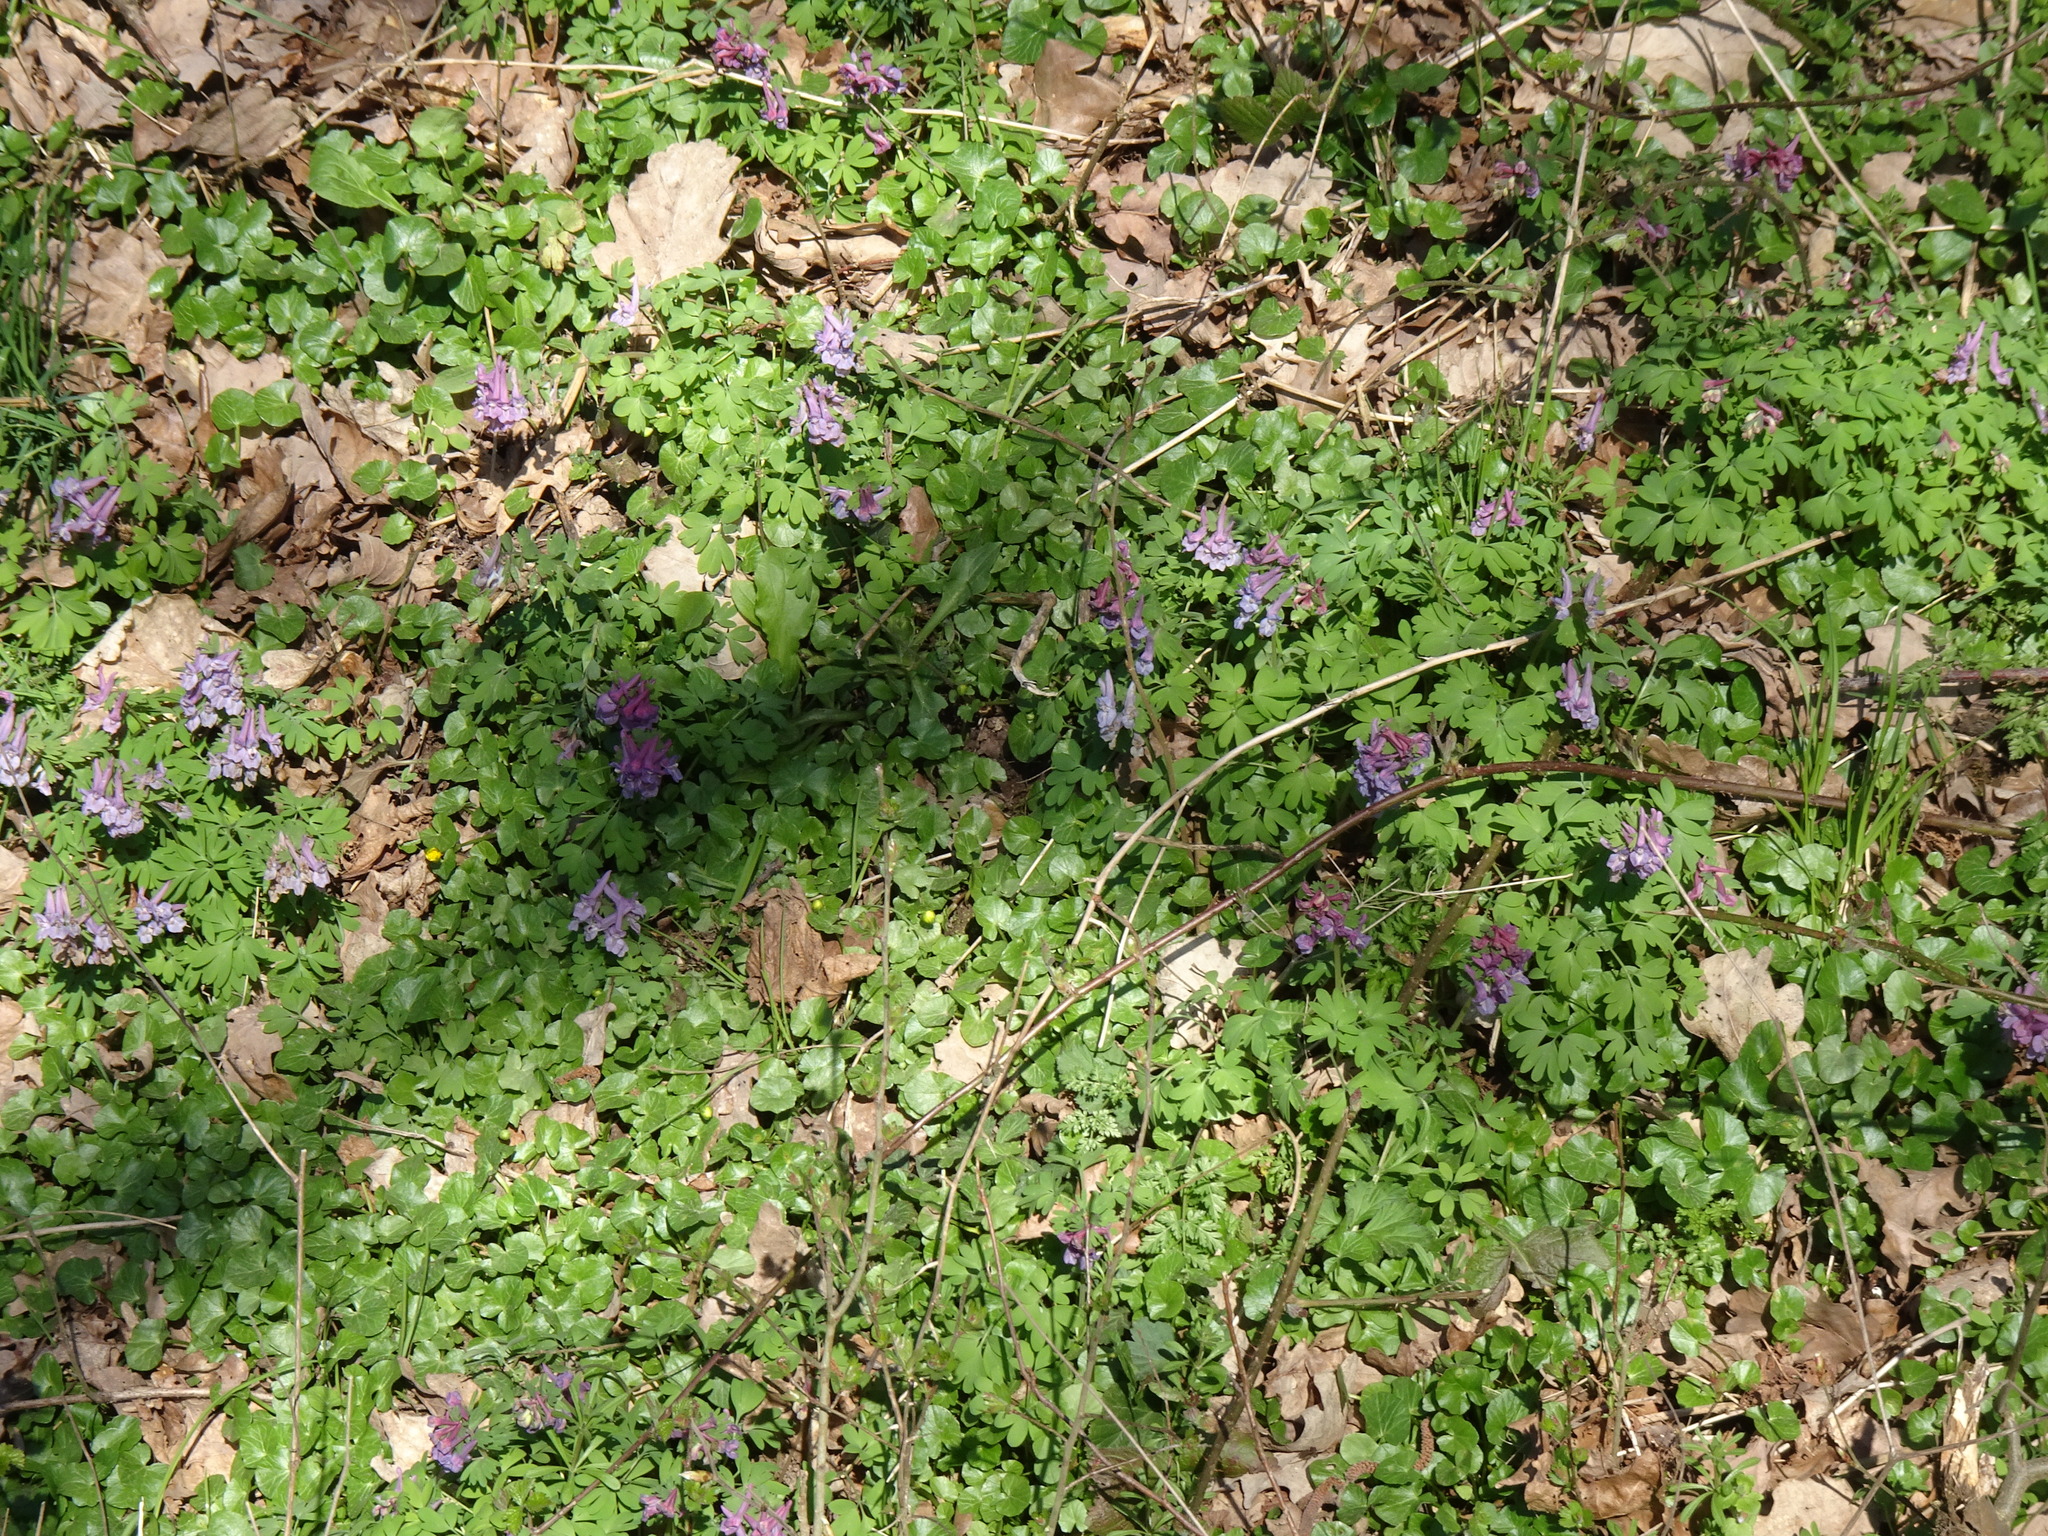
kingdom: Plantae
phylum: Tracheophyta
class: Magnoliopsida
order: Ranunculales
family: Papaveraceae
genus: Corydalis
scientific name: Corydalis solida
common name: Bird-in-a-bush
